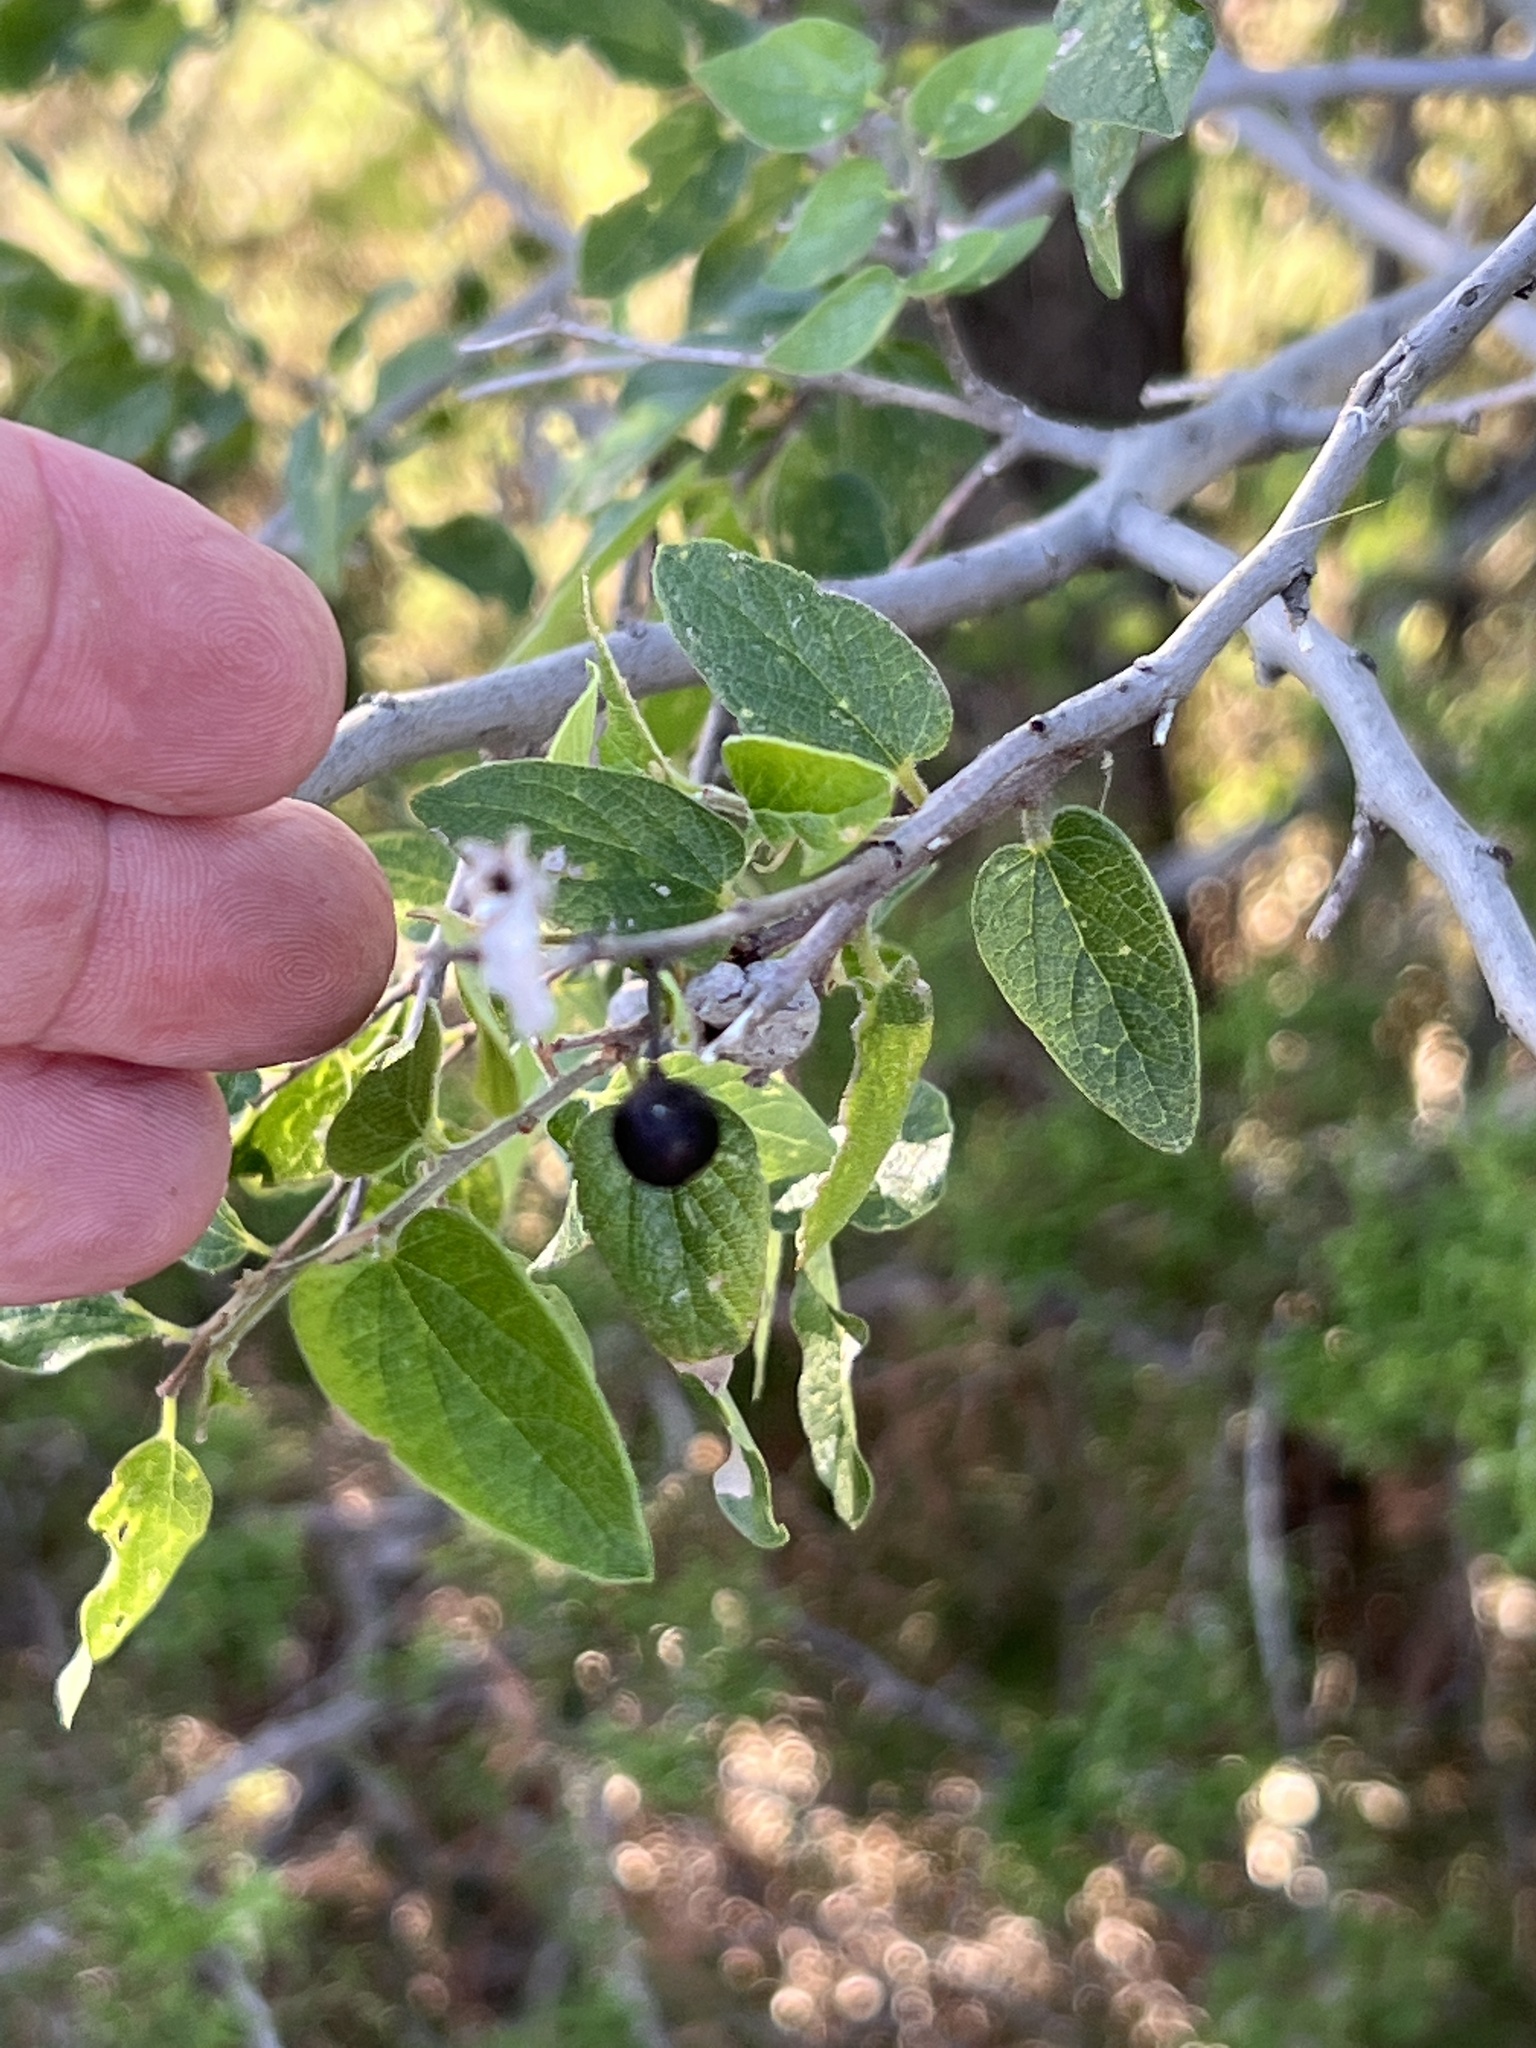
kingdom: Plantae
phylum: Tracheophyta
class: Magnoliopsida
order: Rosales
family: Cannabaceae
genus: Celtis
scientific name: Celtis reticulata
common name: Netleaf hackberry
